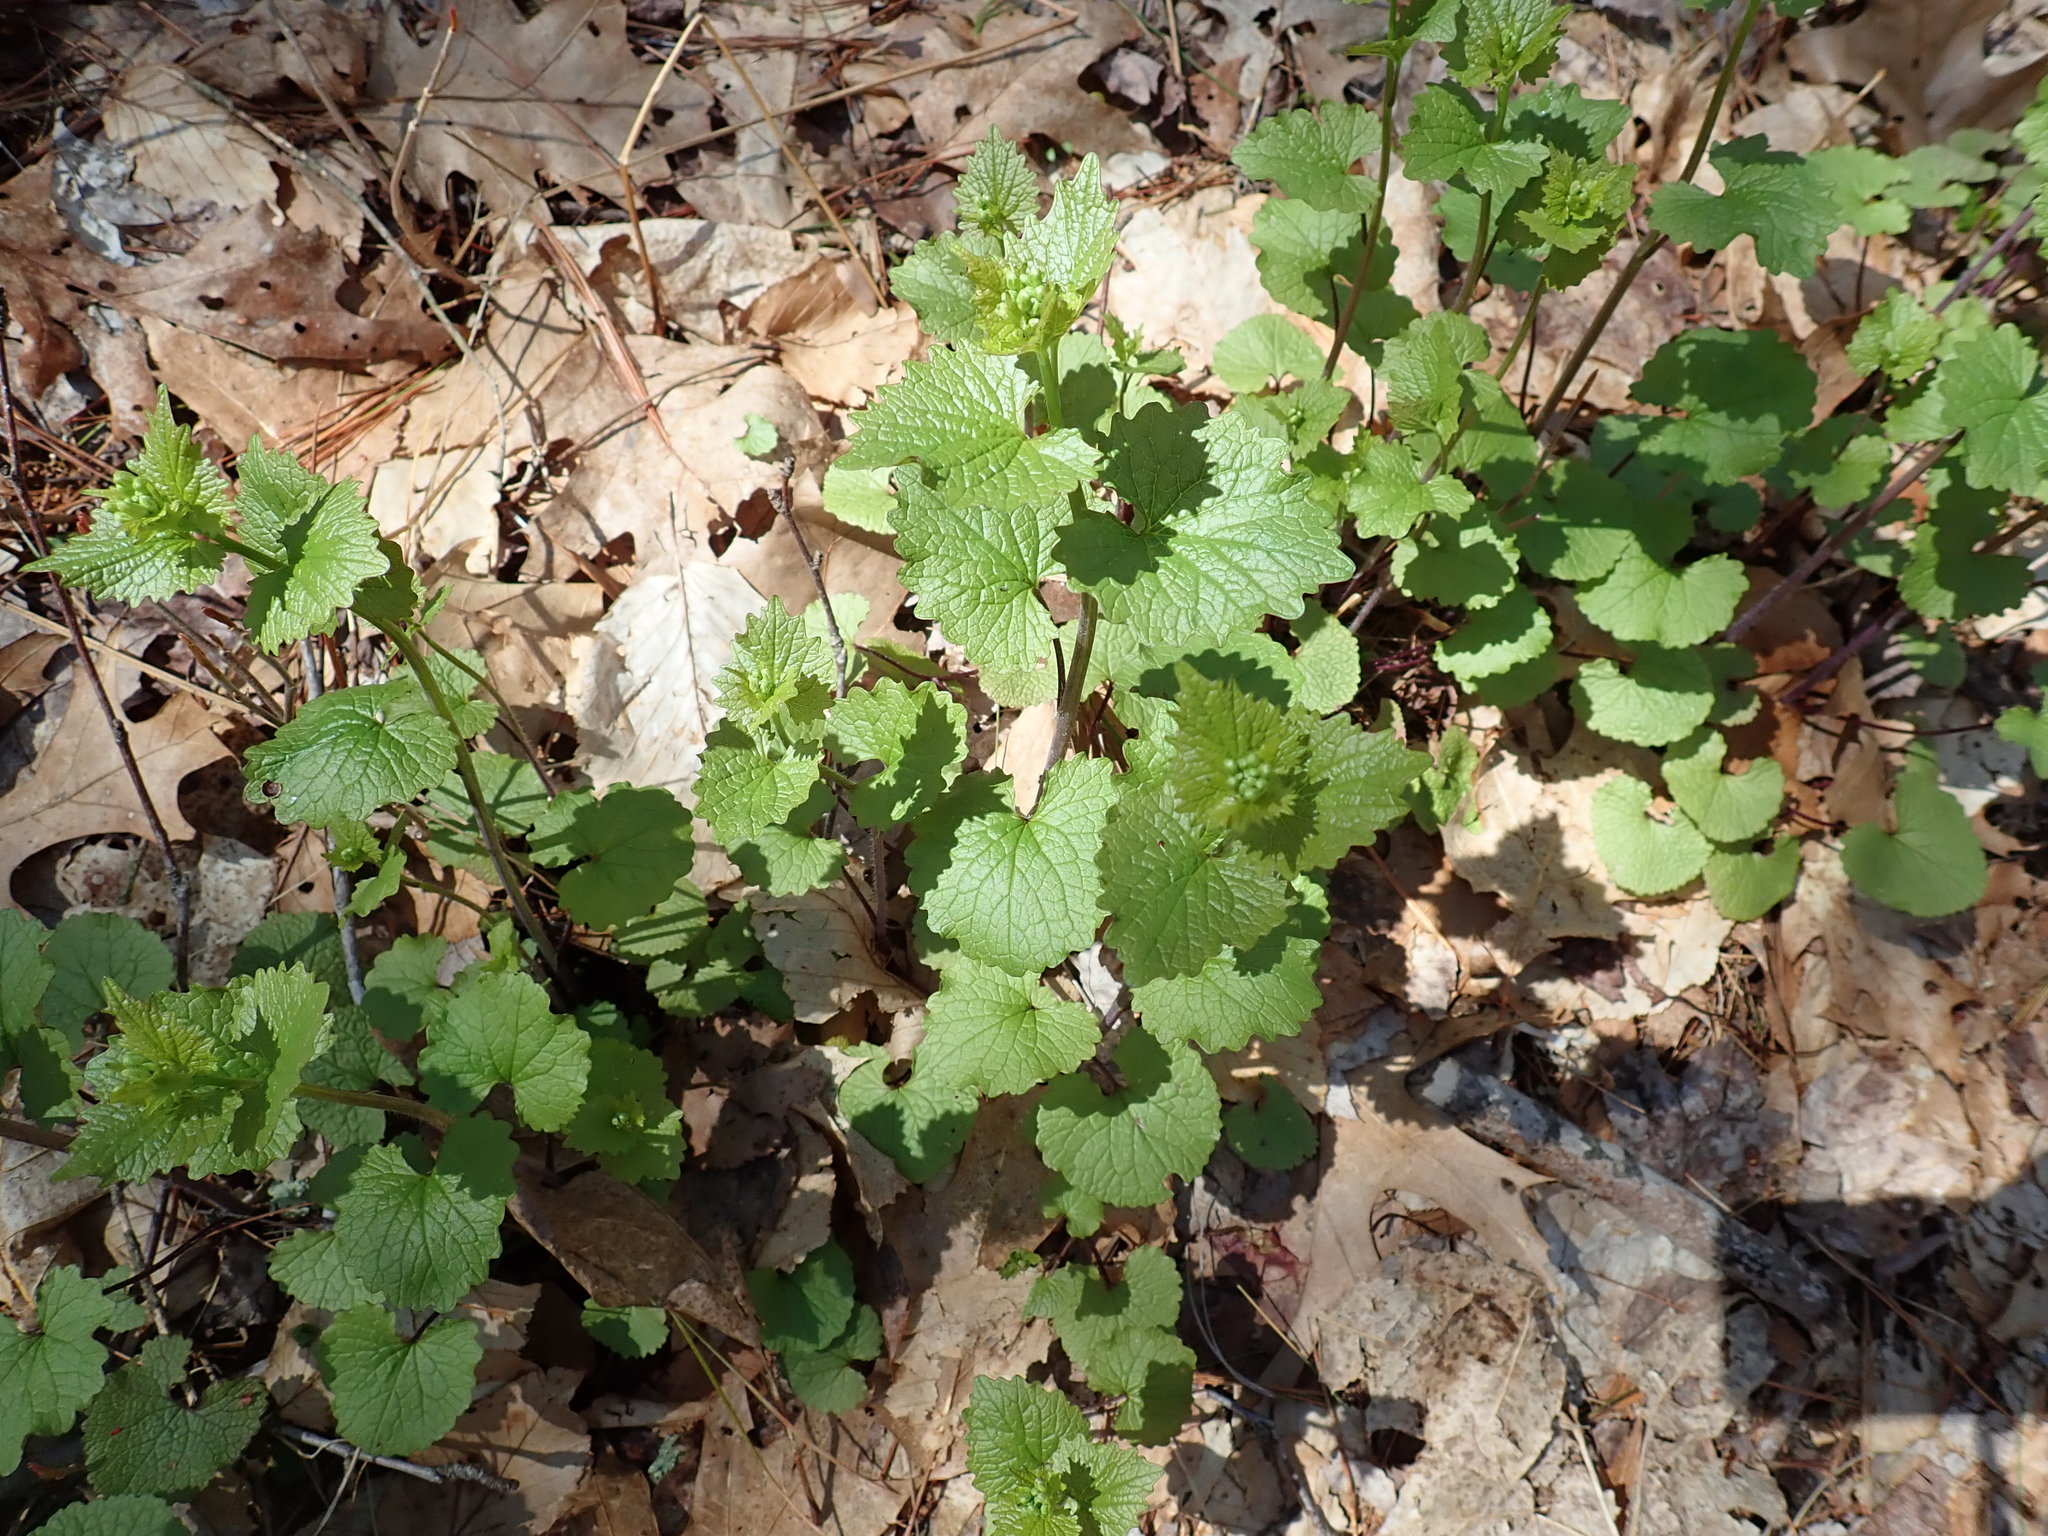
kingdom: Plantae
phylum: Tracheophyta
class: Magnoliopsida
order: Brassicales
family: Brassicaceae
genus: Alliaria
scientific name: Alliaria petiolata
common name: Garlic mustard
